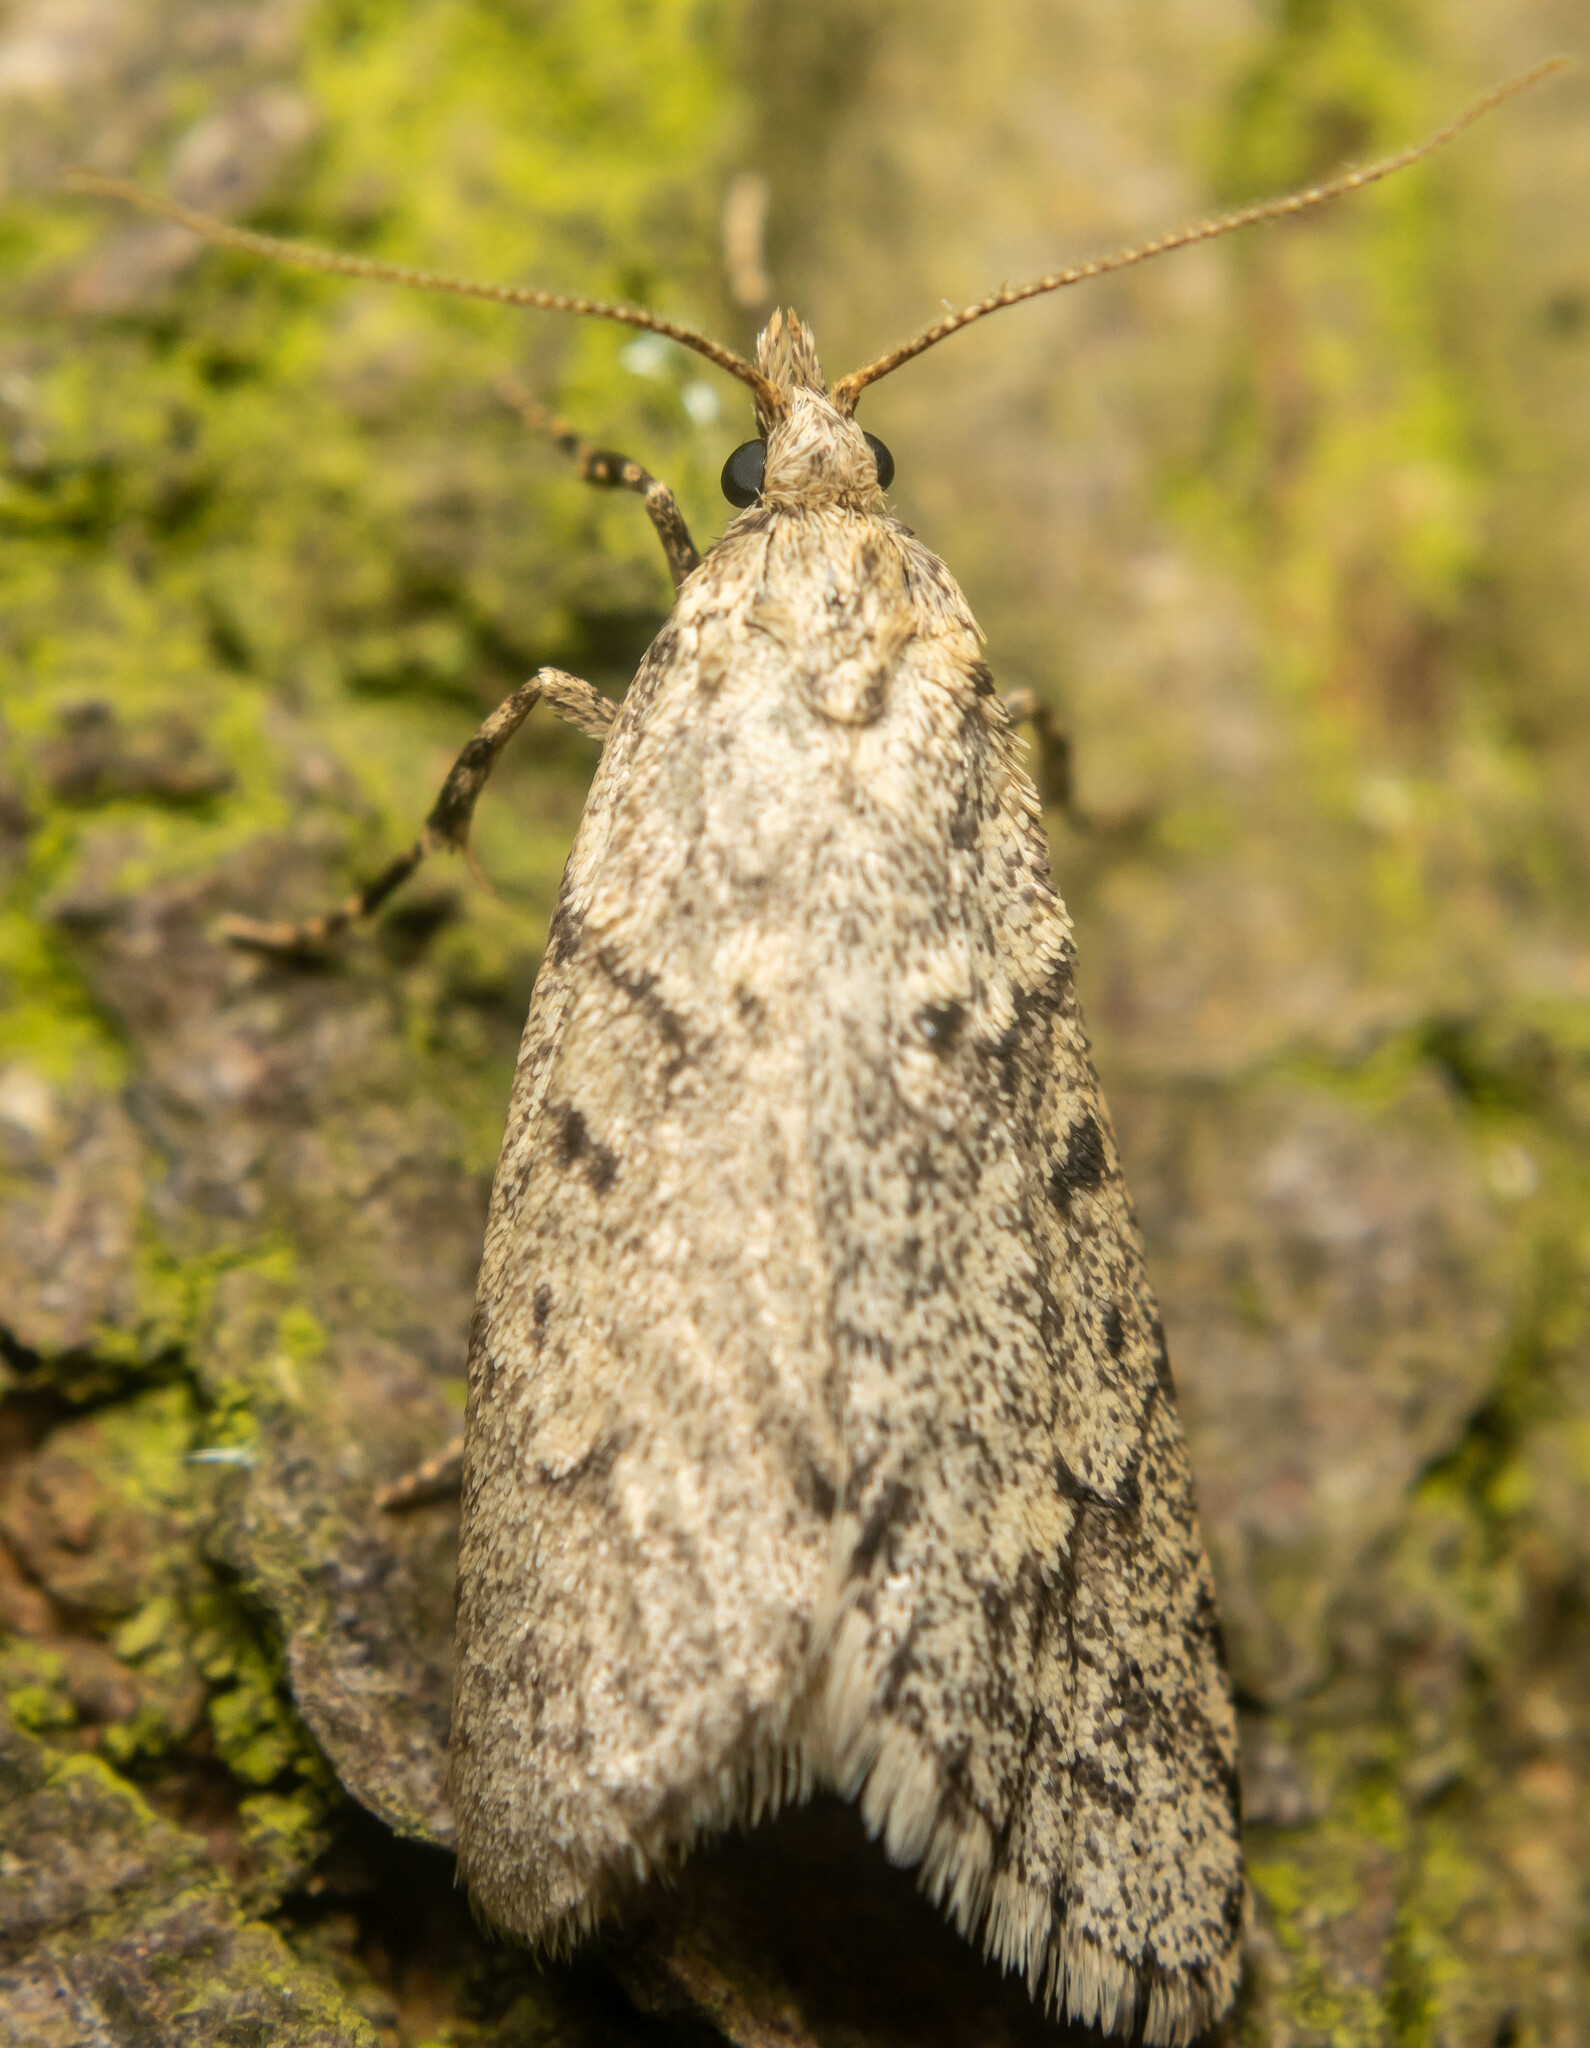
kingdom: Animalia
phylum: Arthropoda
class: Insecta
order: Lepidoptera
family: Lypusidae
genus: Diurnea
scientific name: Diurnea fagella
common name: March tubic
